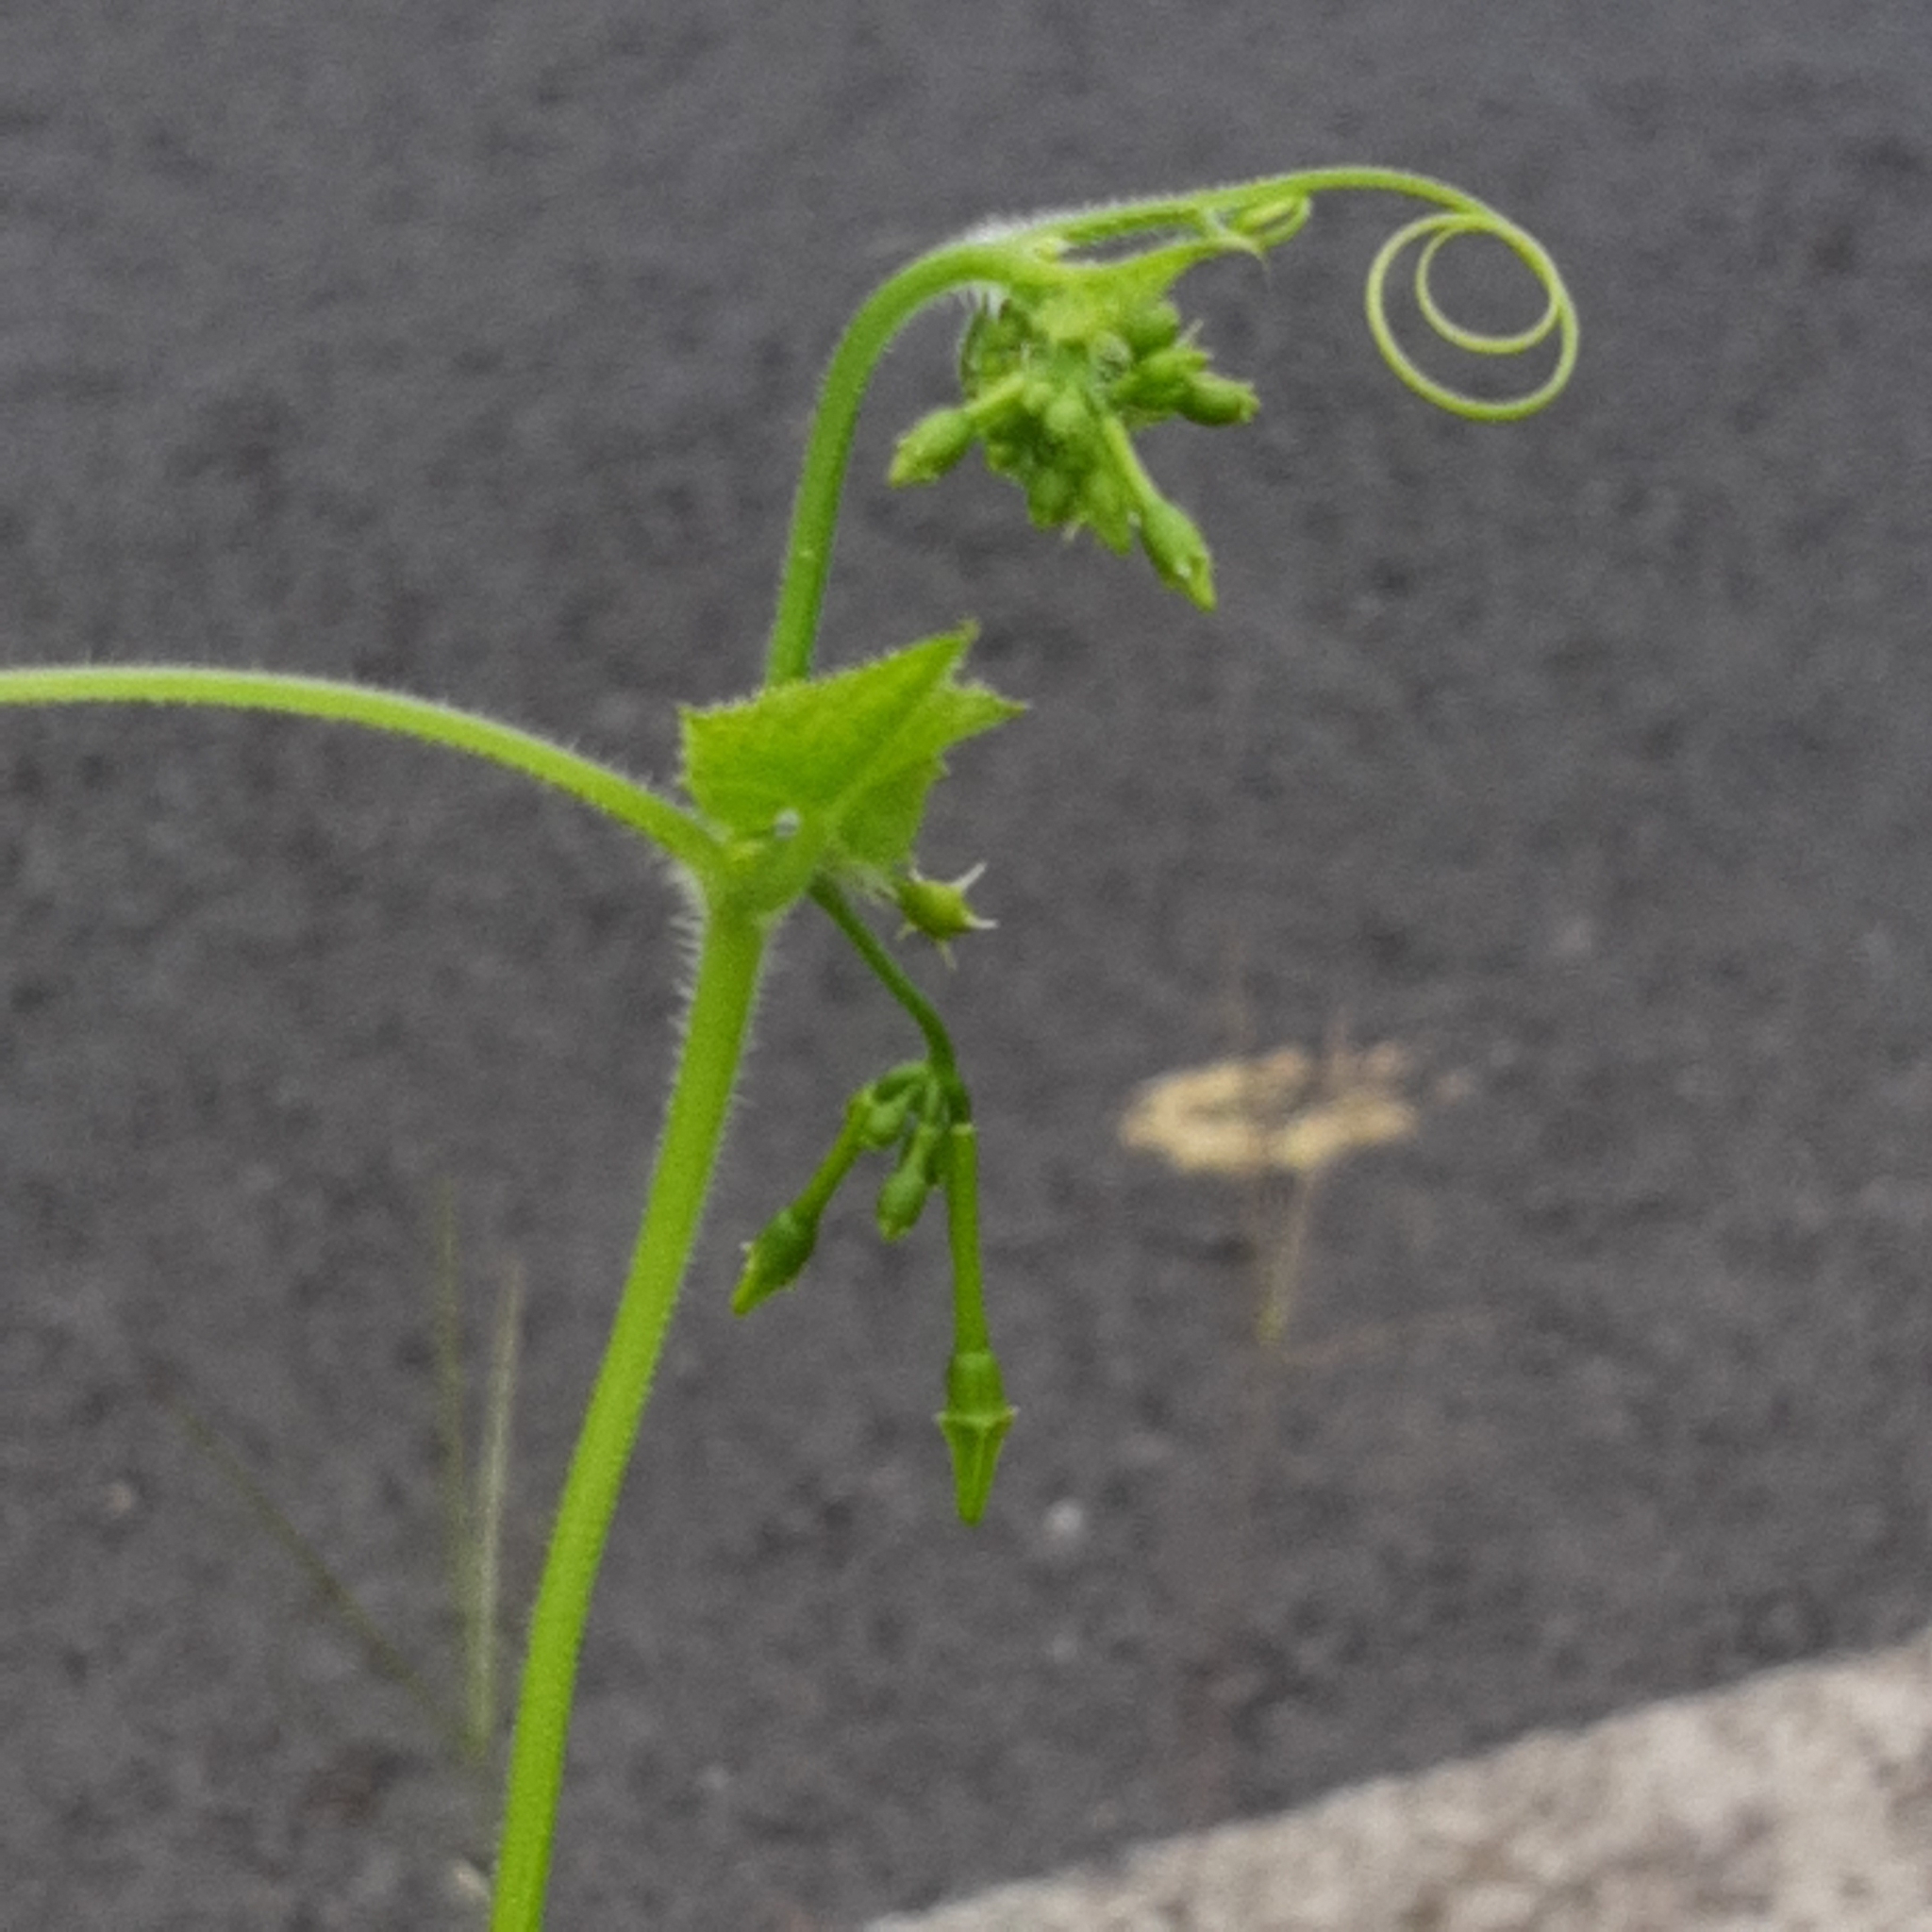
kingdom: Plantae
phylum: Tracheophyta
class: Magnoliopsida
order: Cucurbitales
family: Cucurbitaceae
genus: Cyclanthera
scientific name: Cyclanthera carthagenensis
